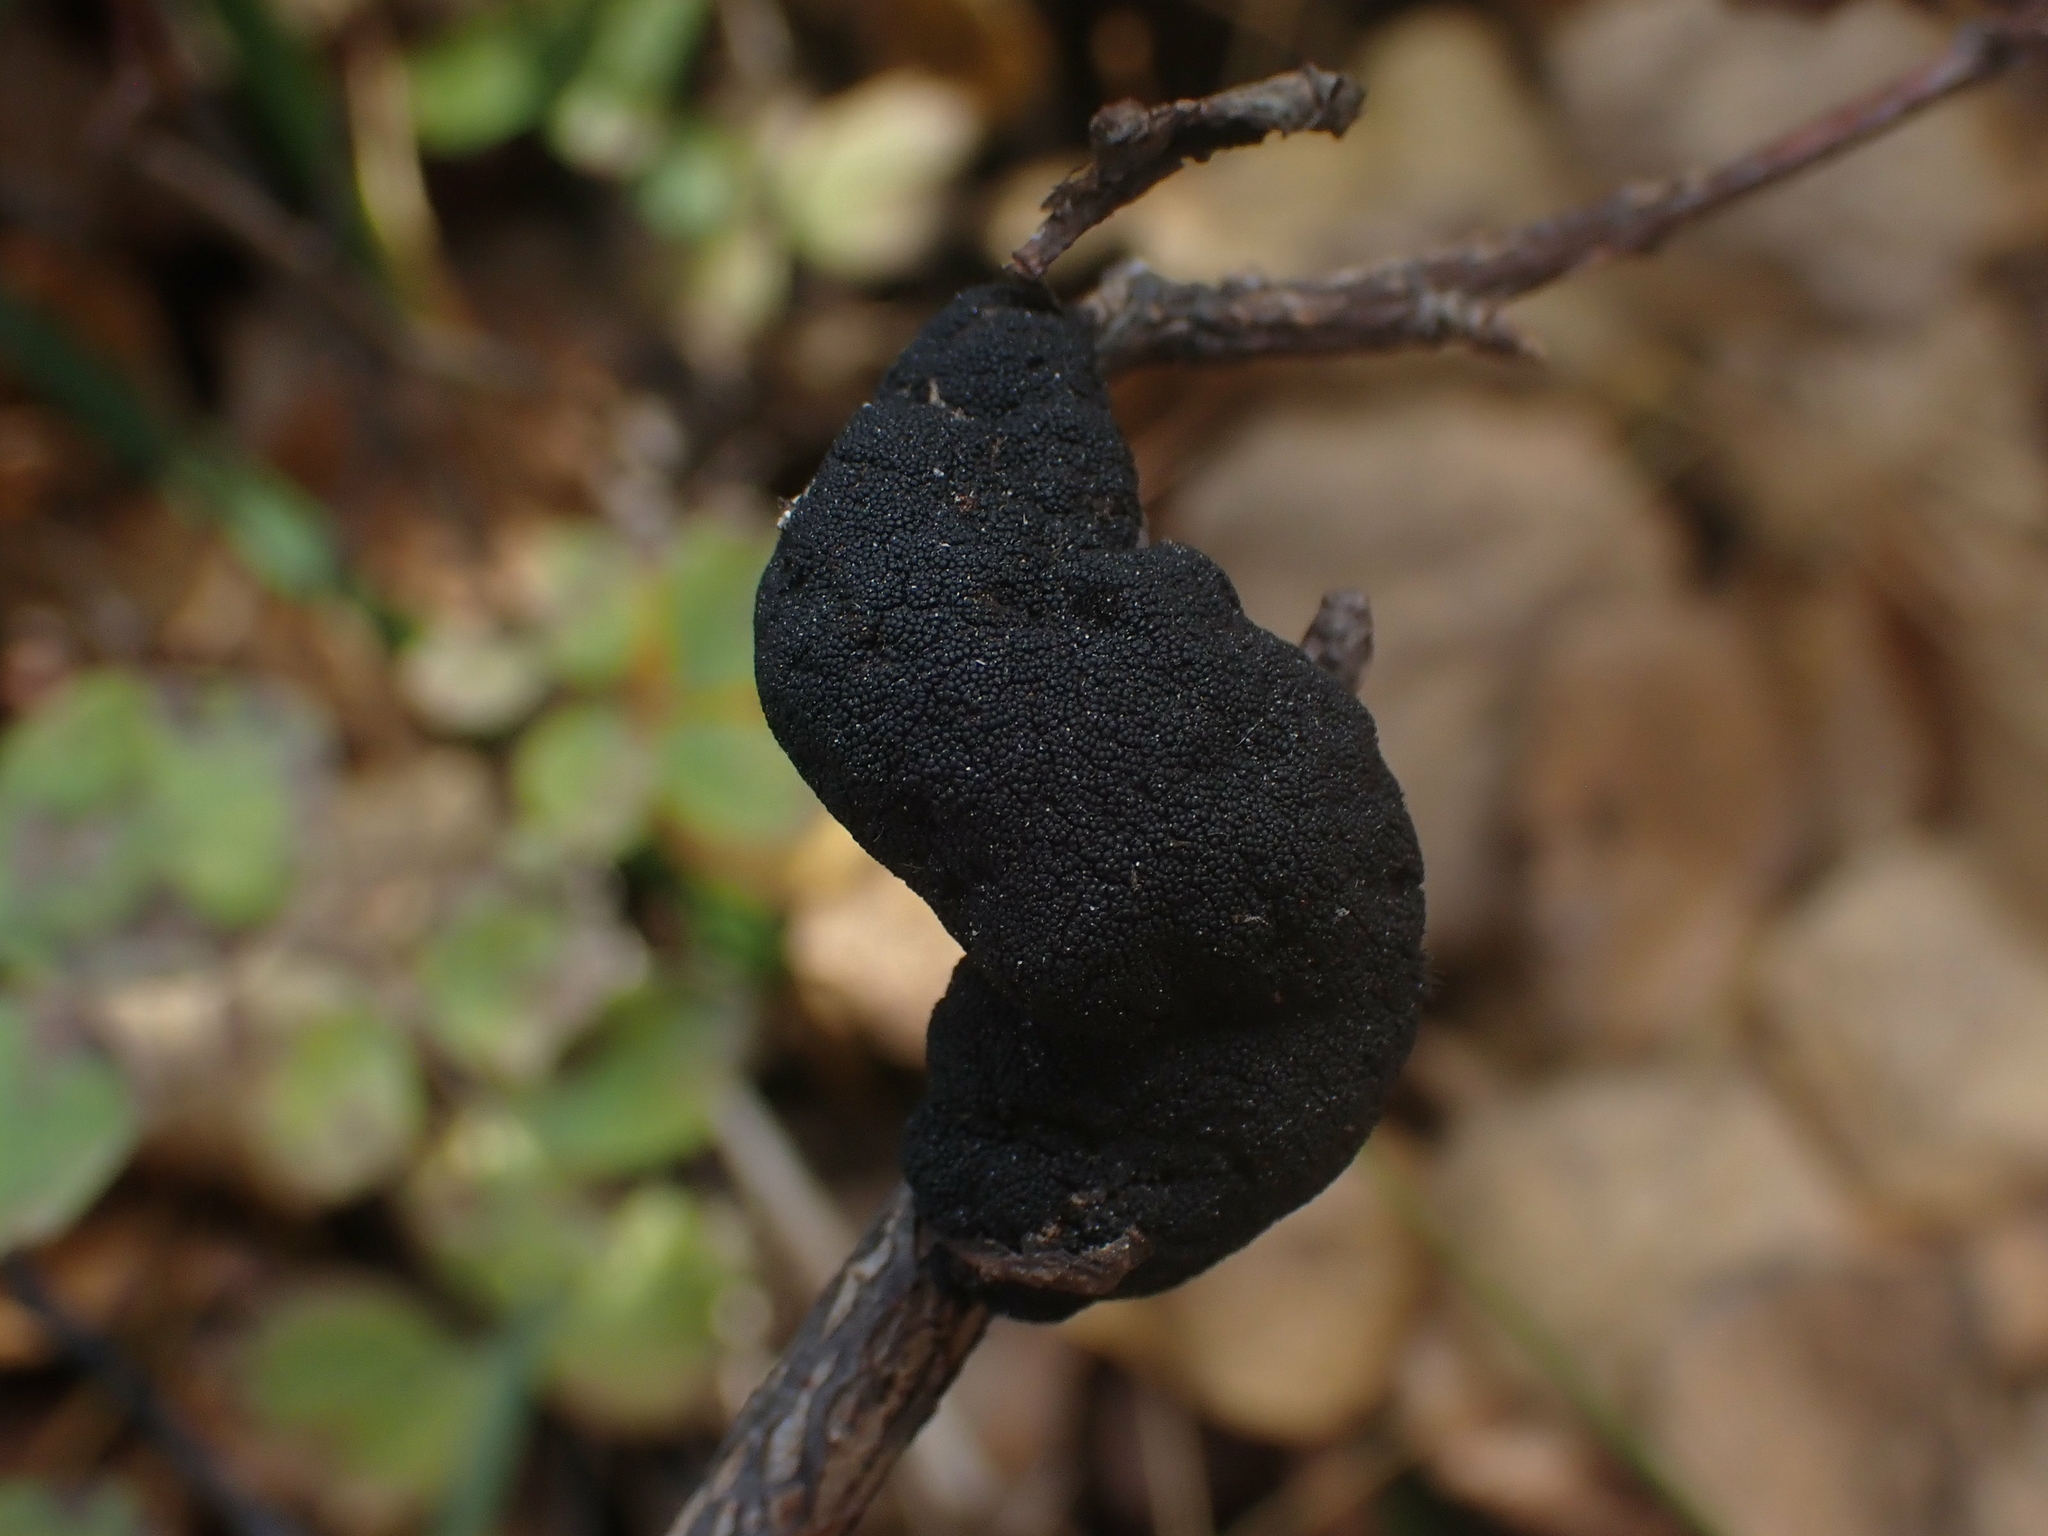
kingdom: Fungi
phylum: Ascomycota
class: Dothideomycetes
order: Venturiales
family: Venturiaceae
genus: Apiosporina
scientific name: Apiosporina morbosa
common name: Black knot
